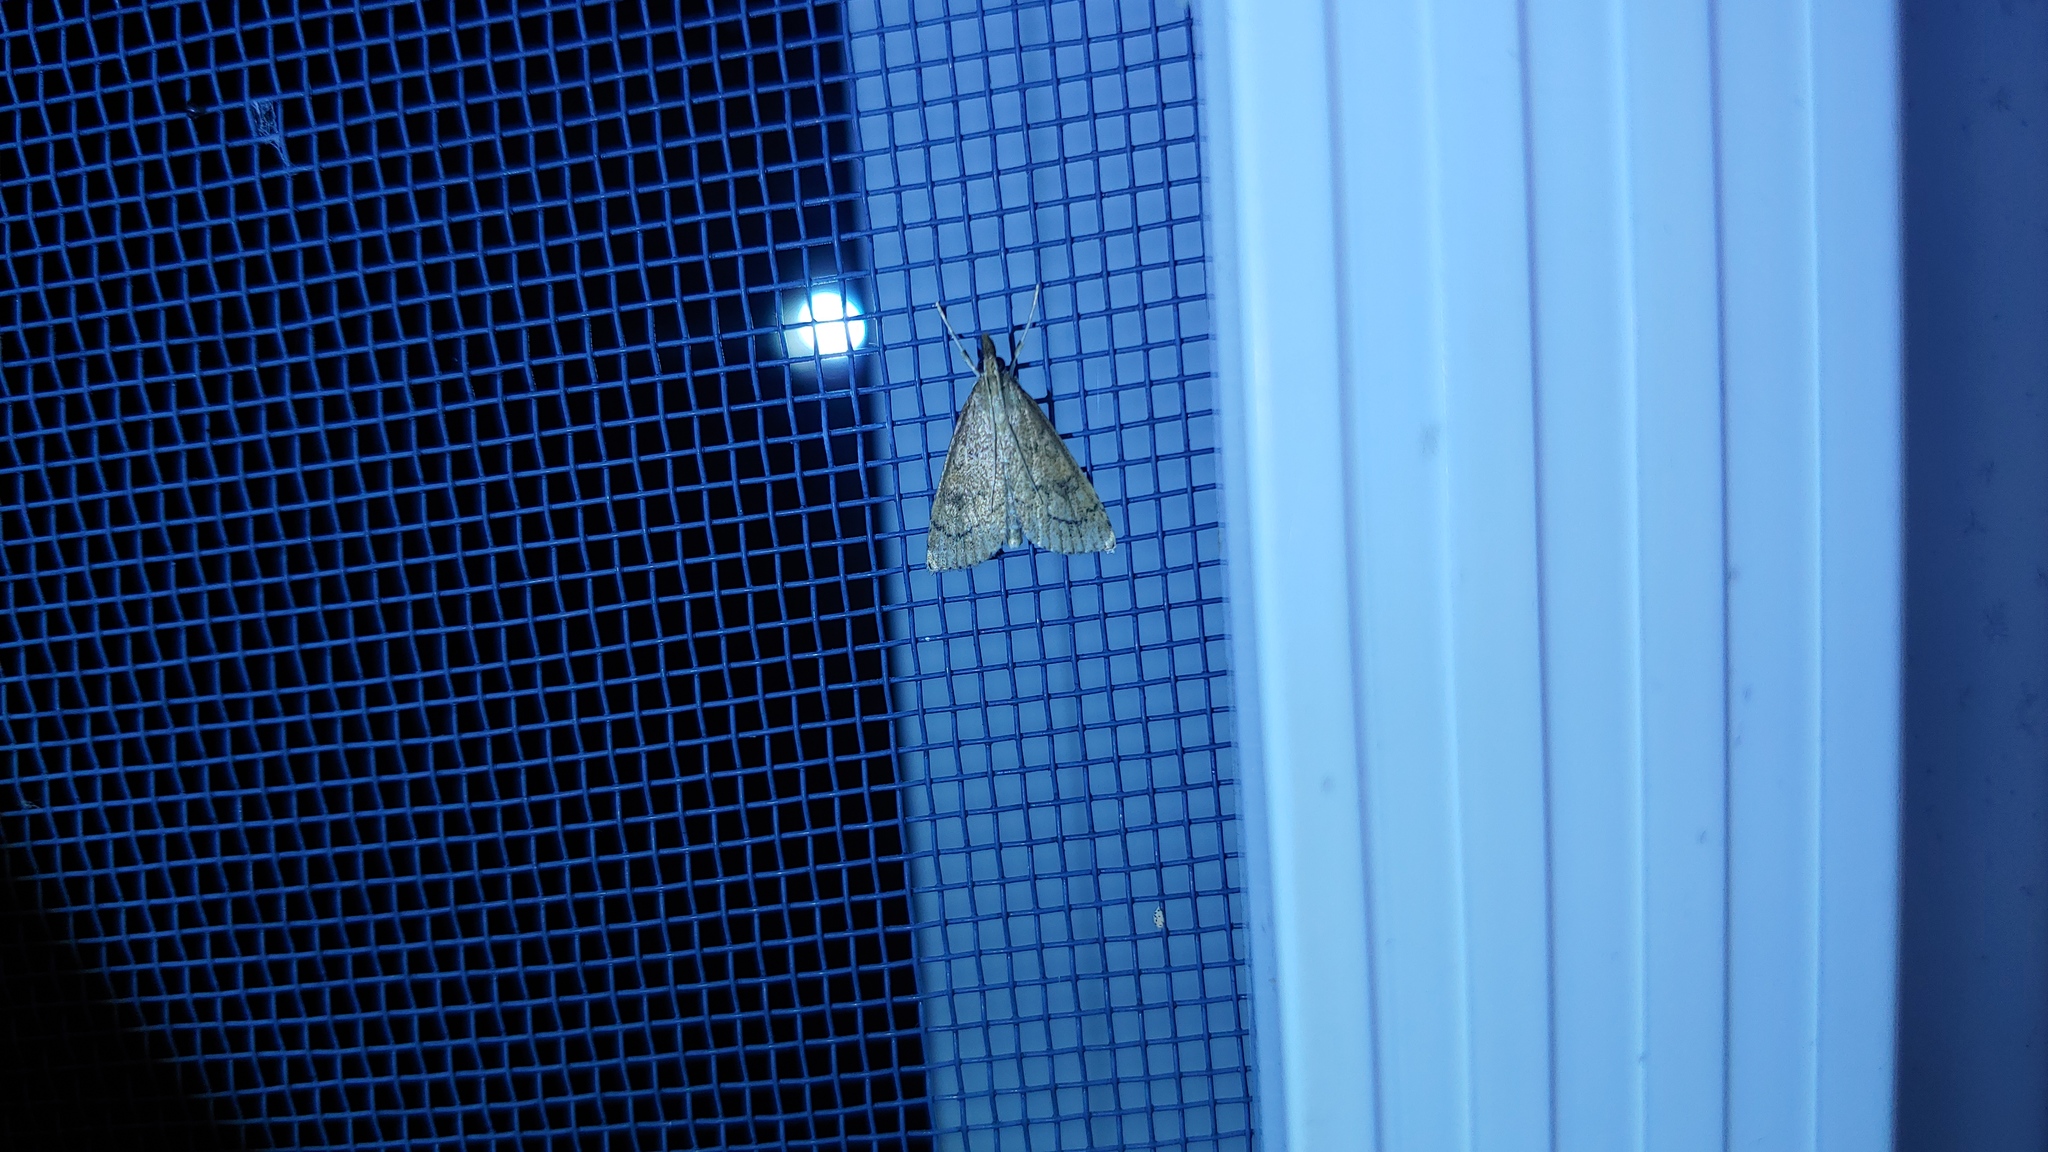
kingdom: Animalia
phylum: Arthropoda
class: Insecta
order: Lepidoptera
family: Crambidae
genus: Udea
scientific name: Udea rubigalis
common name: Celery leaftier moth
